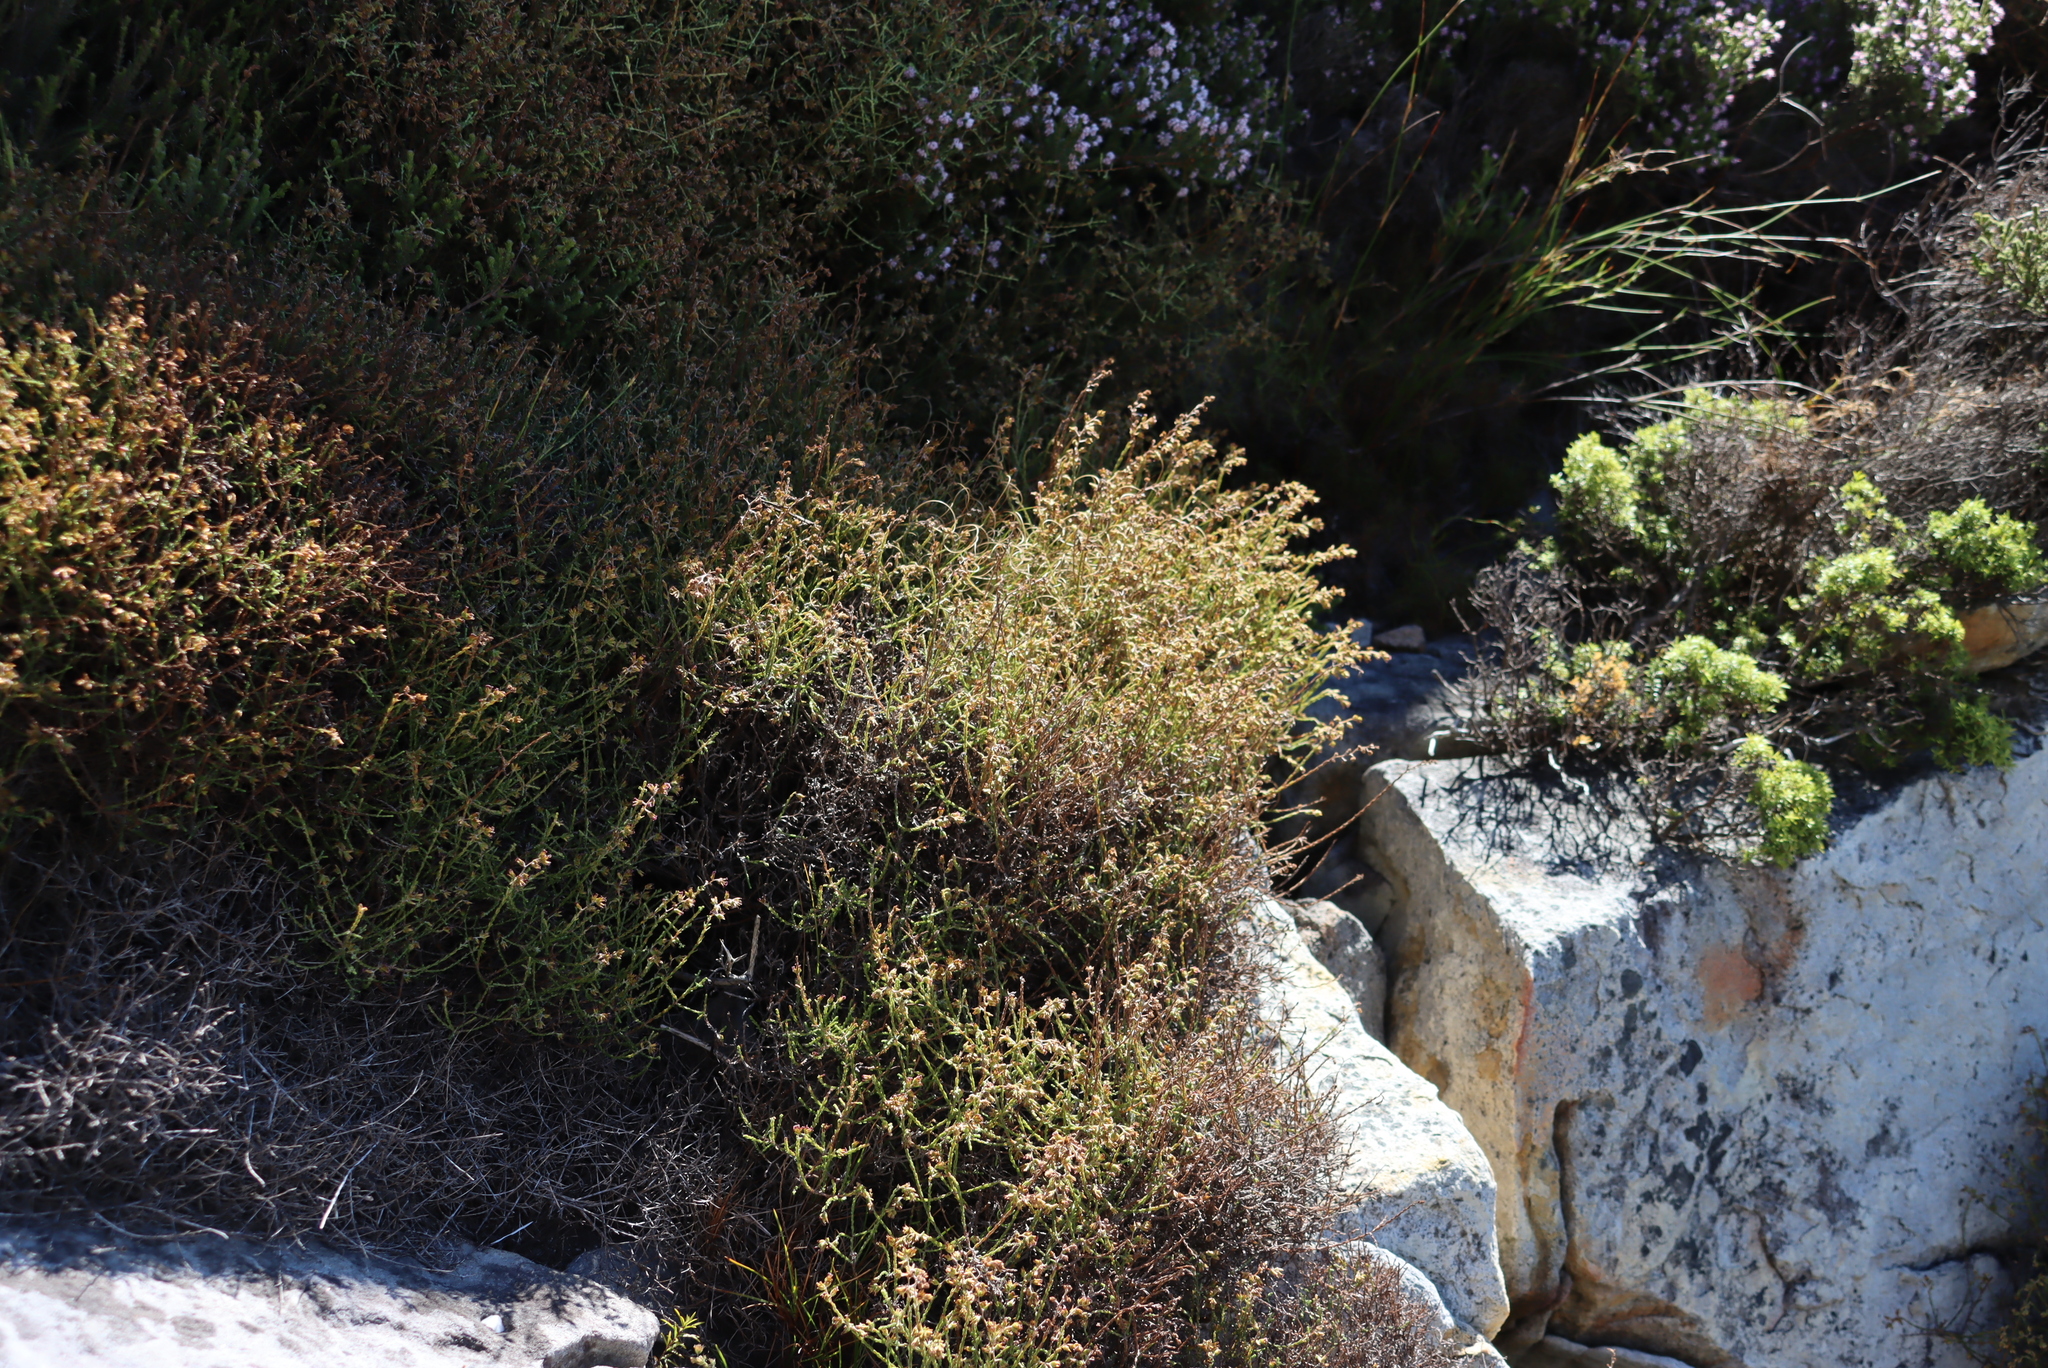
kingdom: Plantae
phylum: Tracheophyta
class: Magnoliopsida
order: Asterales
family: Asteraceae
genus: Myrovernix
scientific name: Myrovernix scaber
